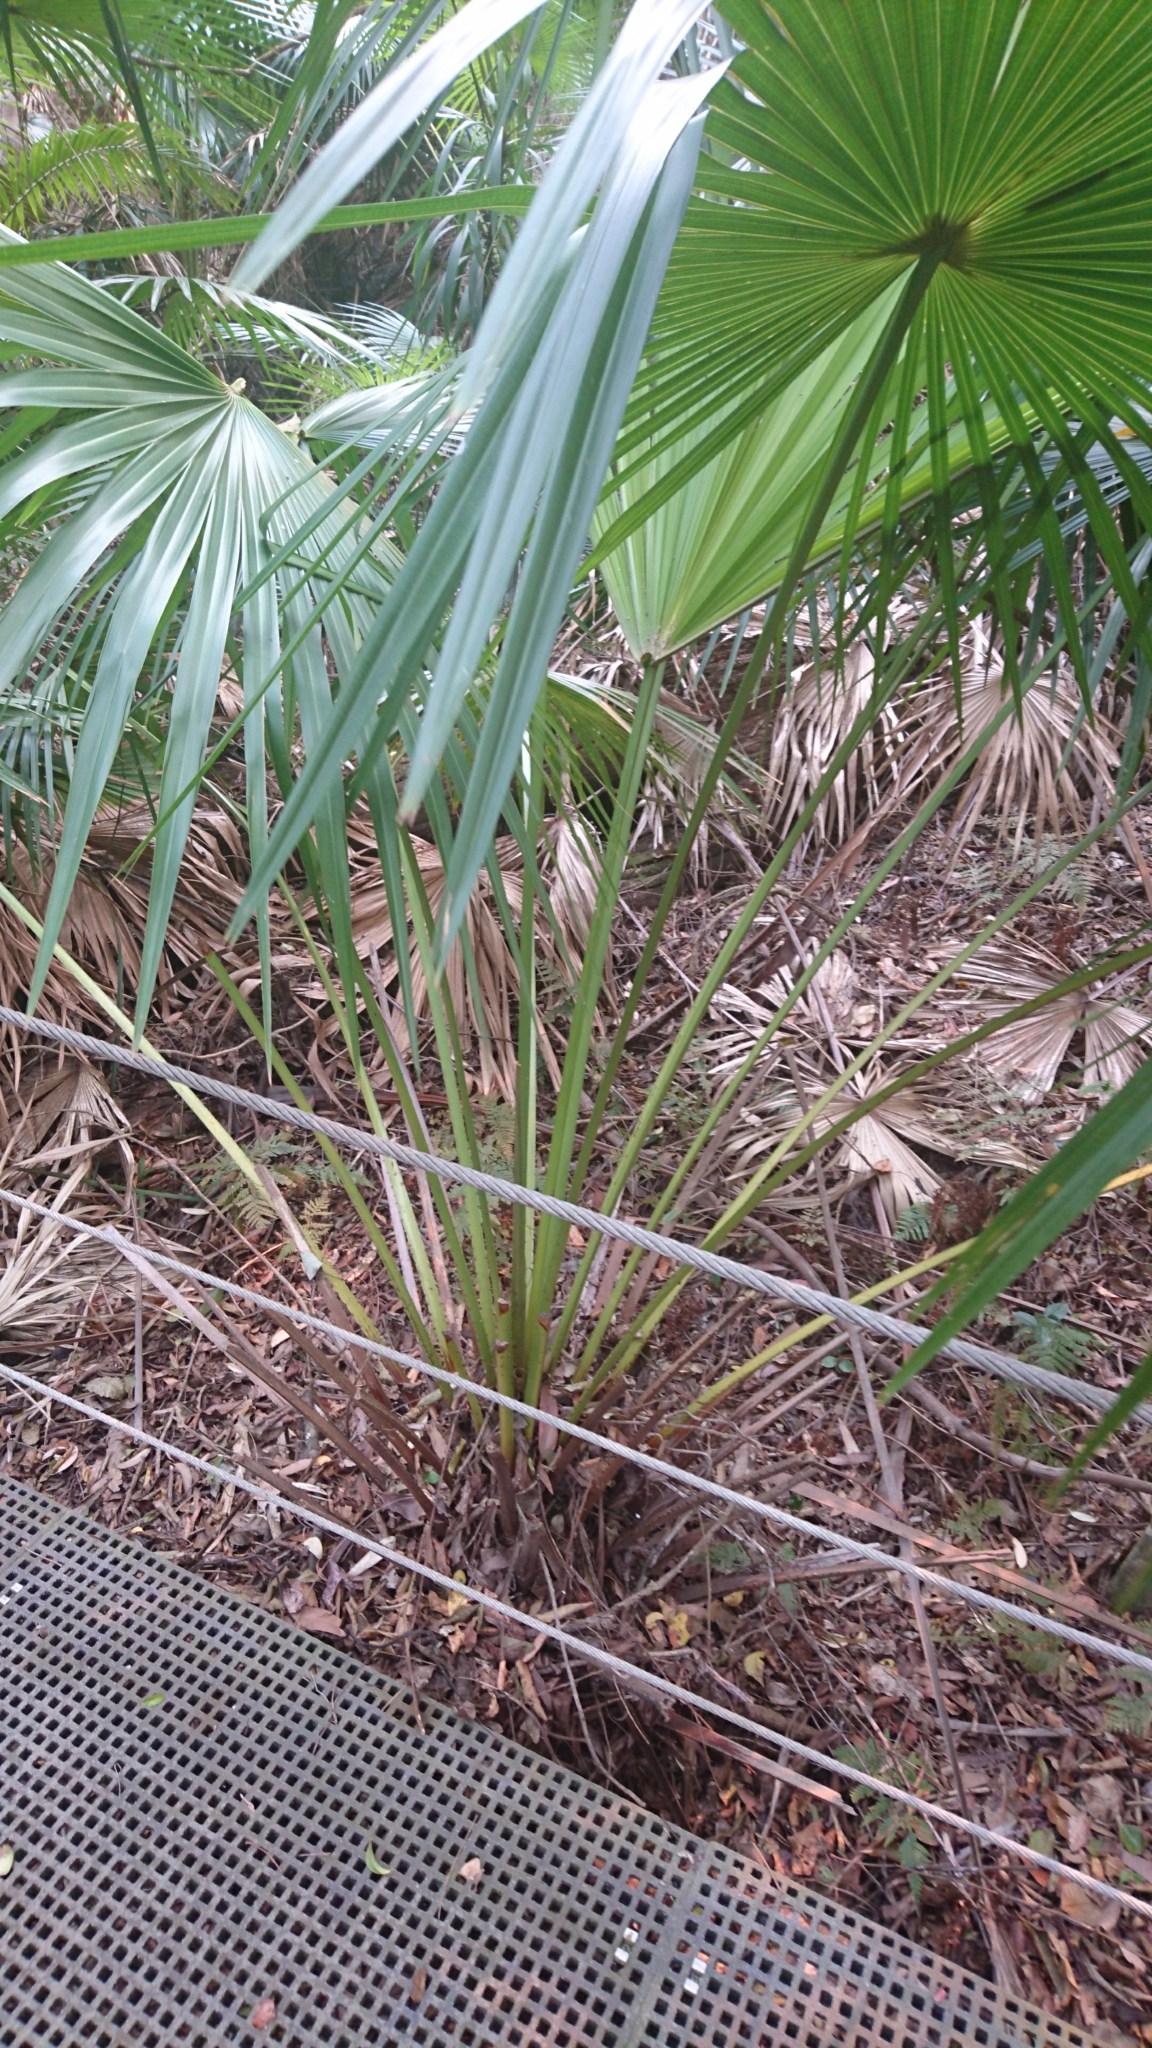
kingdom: Plantae
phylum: Tracheophyta
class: Liliopsida
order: Arecales
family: Arecaceae
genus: Livistona
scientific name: Livistona australis
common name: Cabbage fan palm
